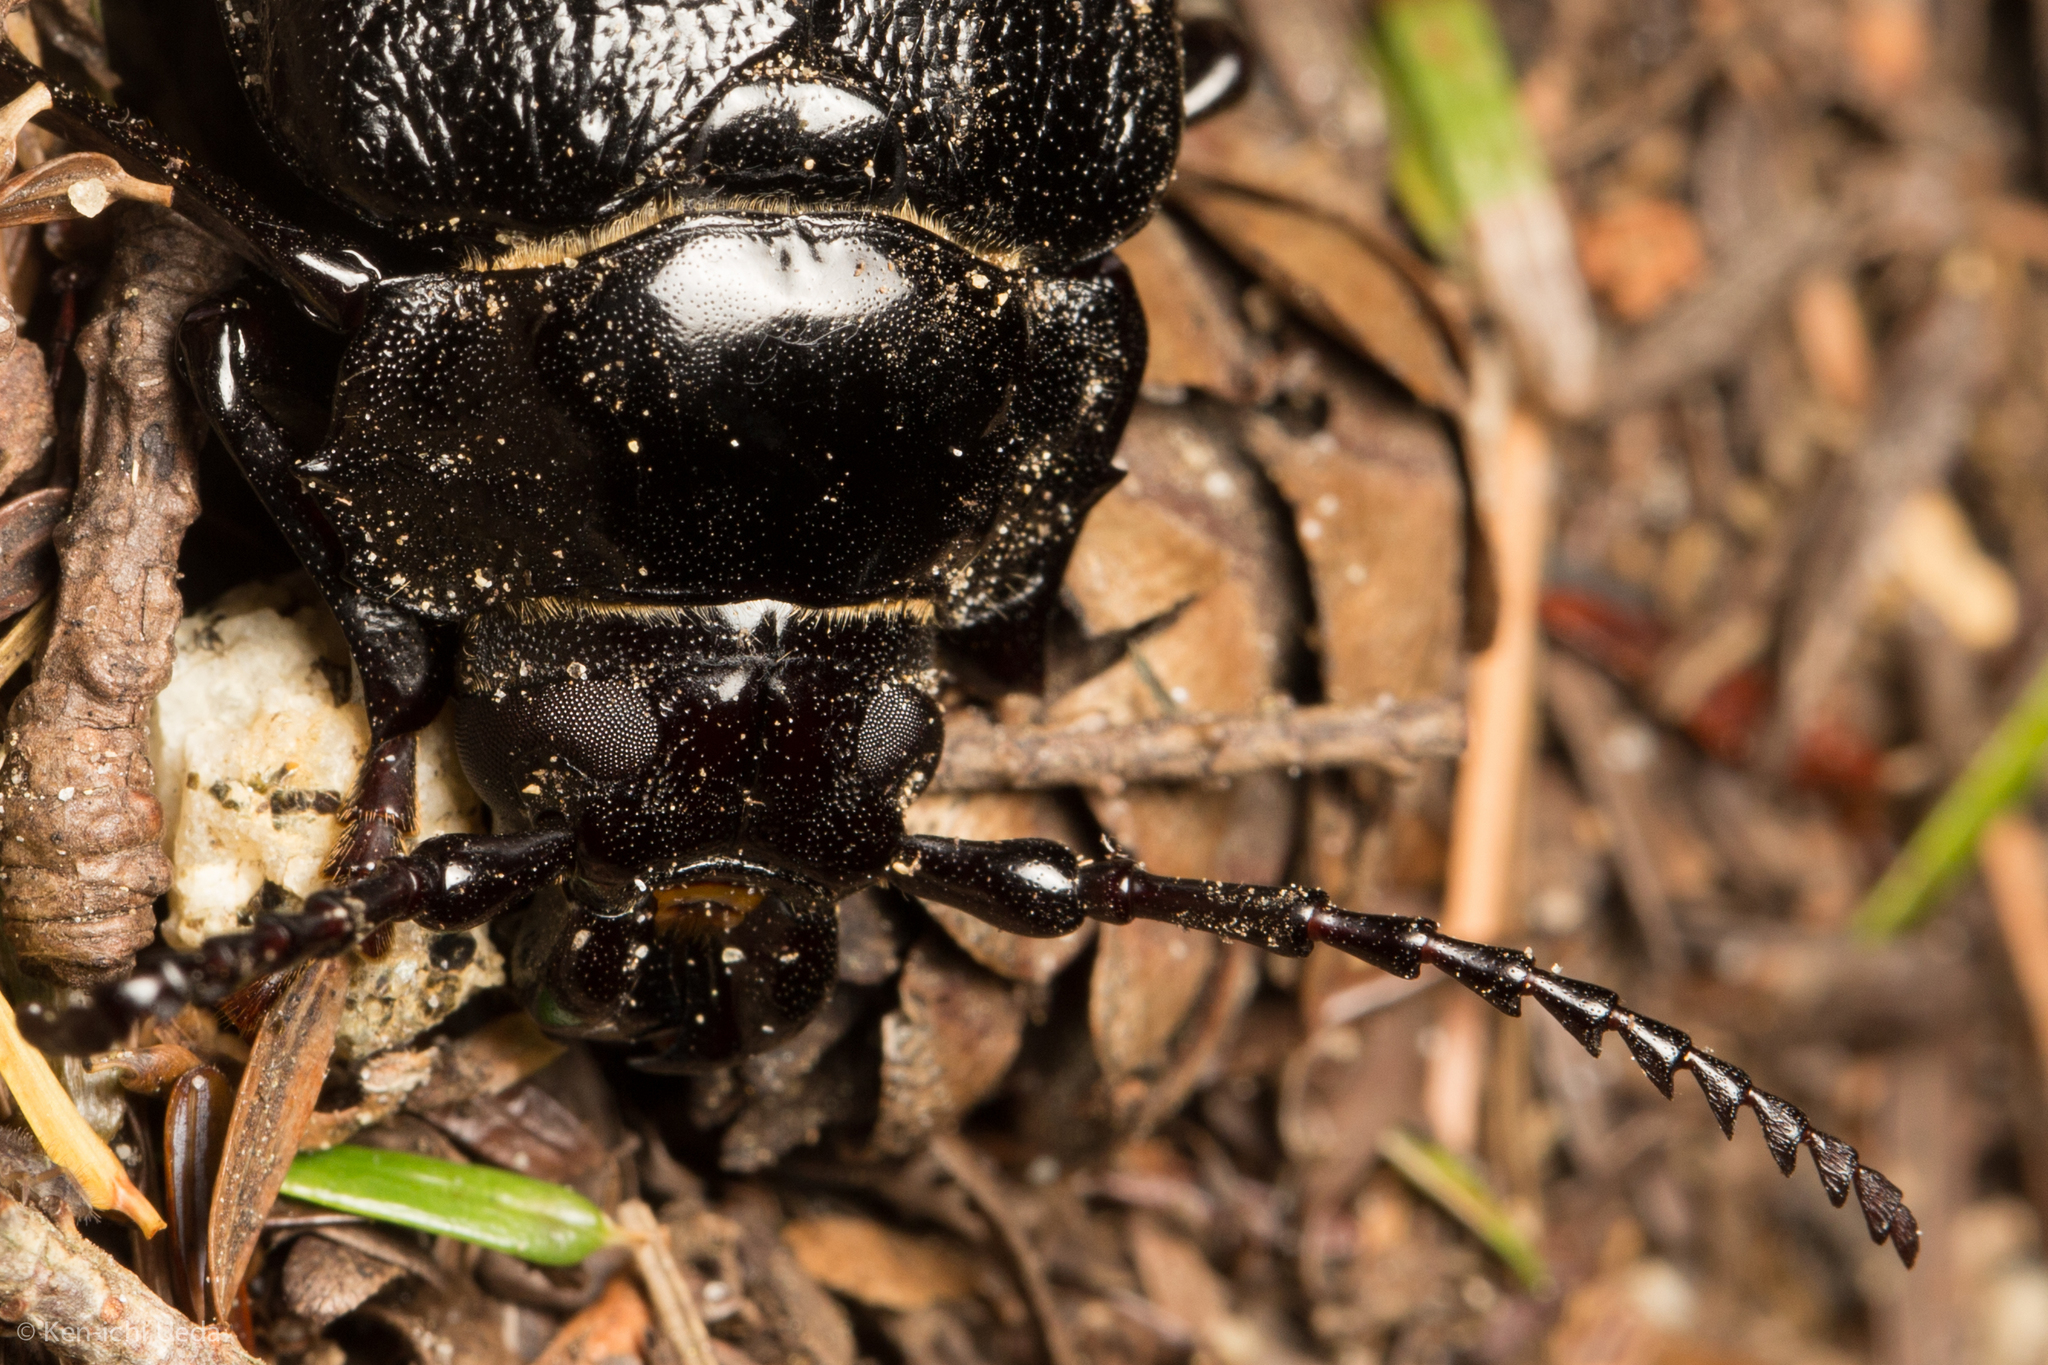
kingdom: Animalia
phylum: Arthropoda
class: Insecta
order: Coleoptera
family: Cerambycidae
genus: Prionus
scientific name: Prionus laticollis
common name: Broad necked prionus
